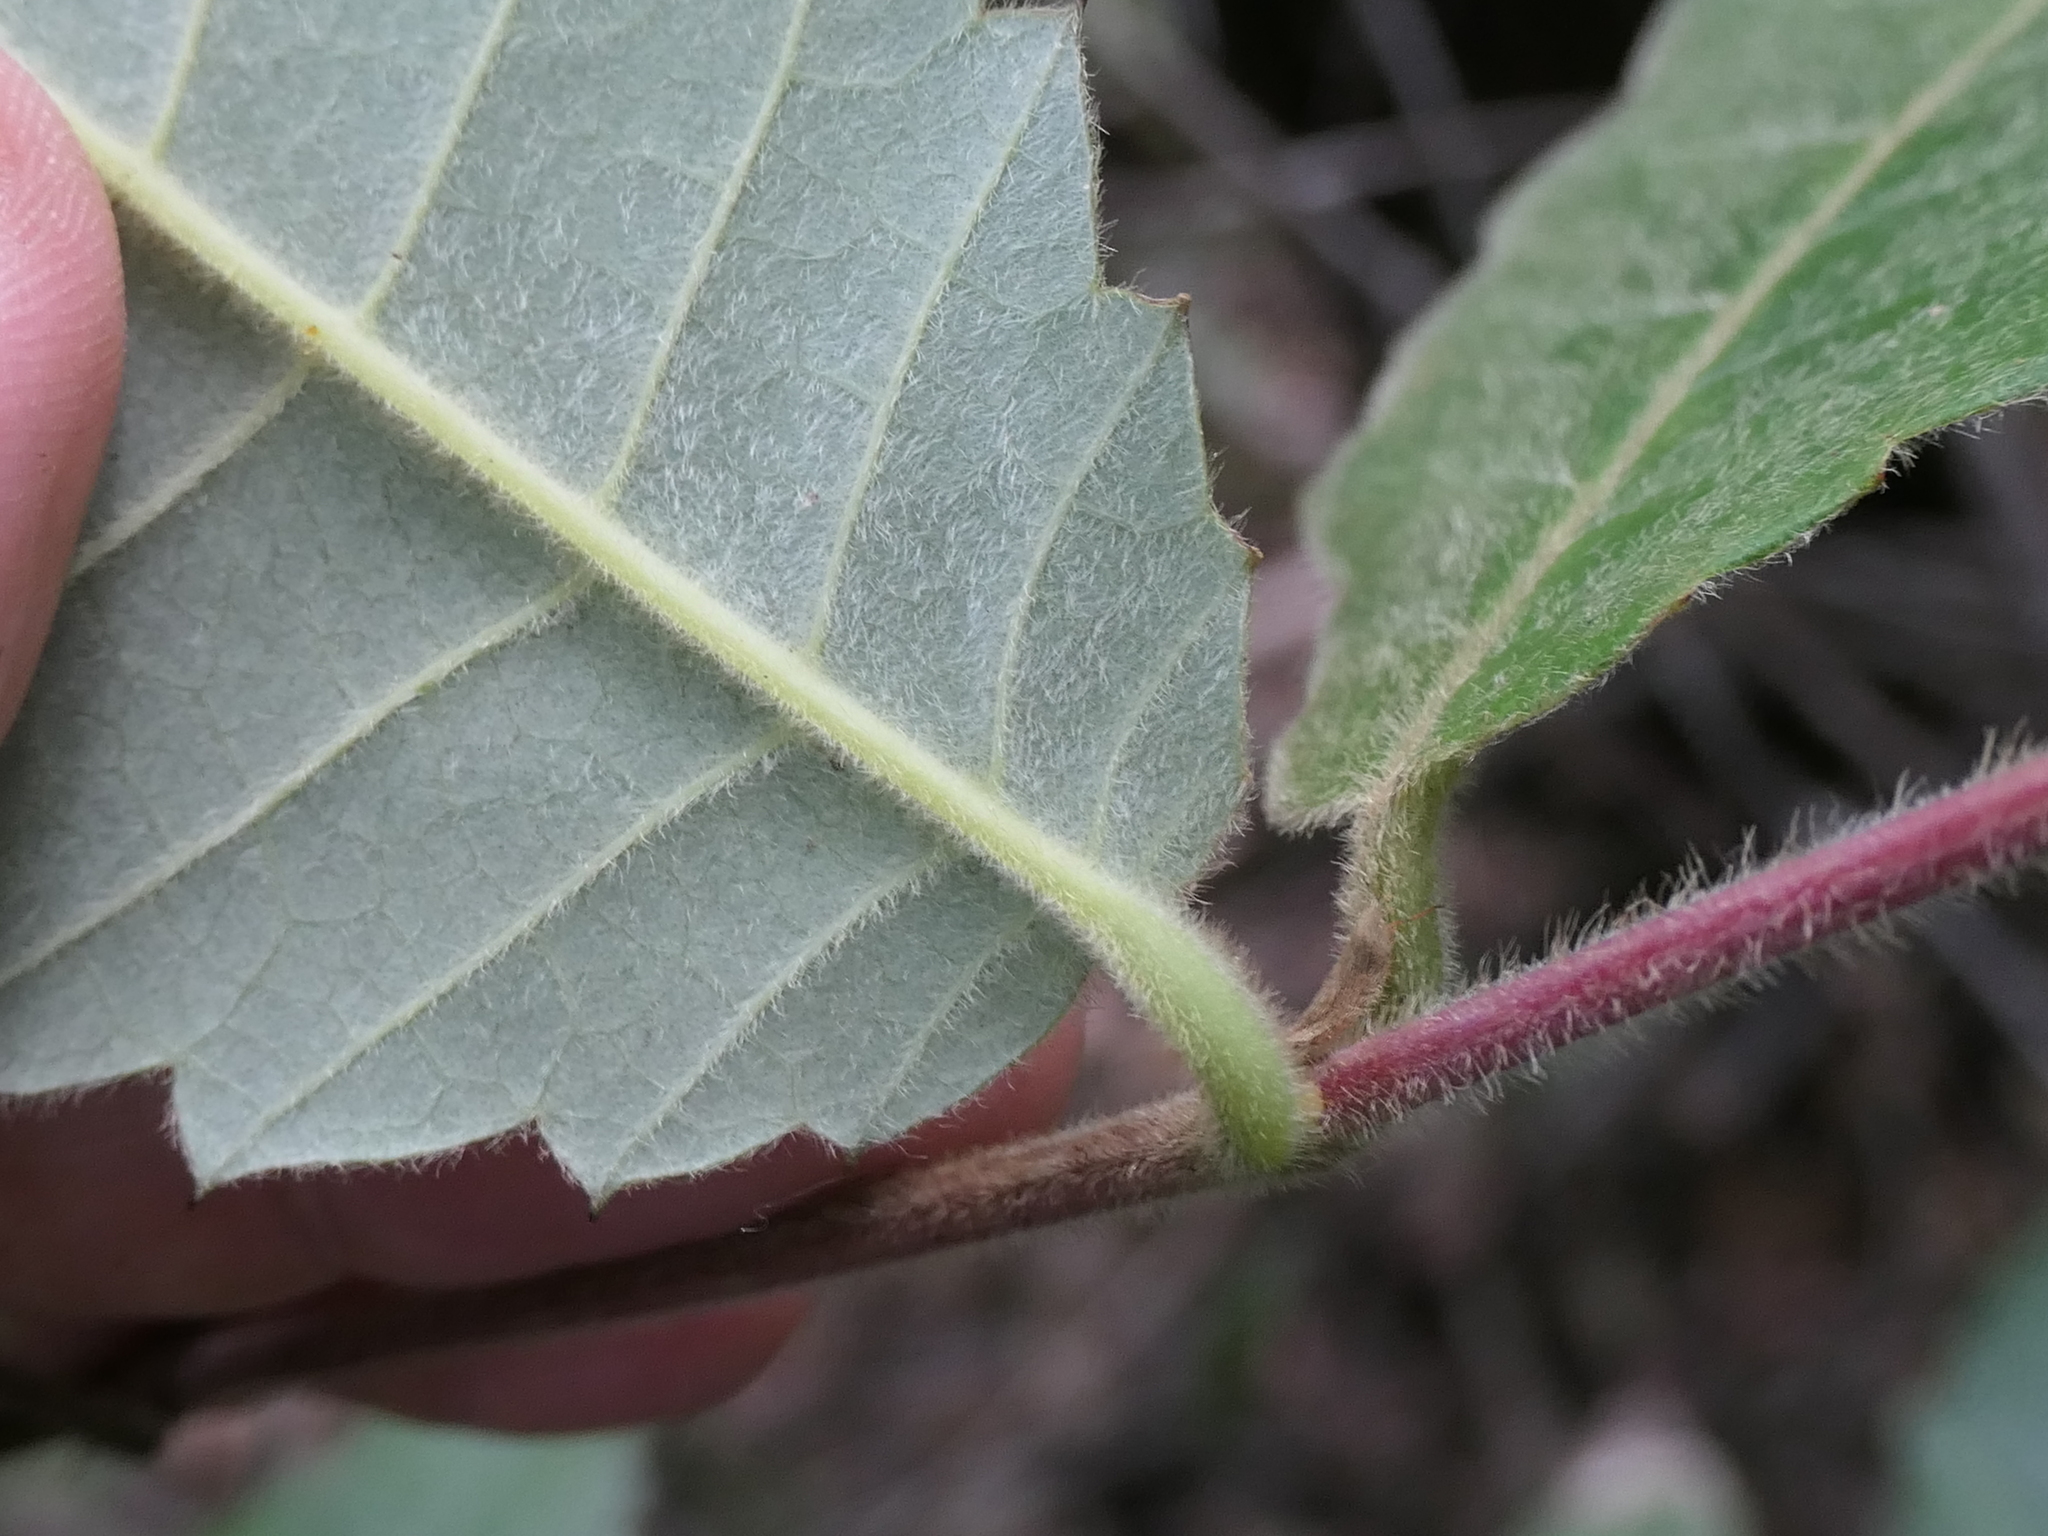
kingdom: Plantae
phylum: Tracheophyta
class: Magnoliopsida
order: Oxalidales
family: Cunoniaceae
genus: Callicoma
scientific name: Callicoma serratifolia
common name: Black wattle
